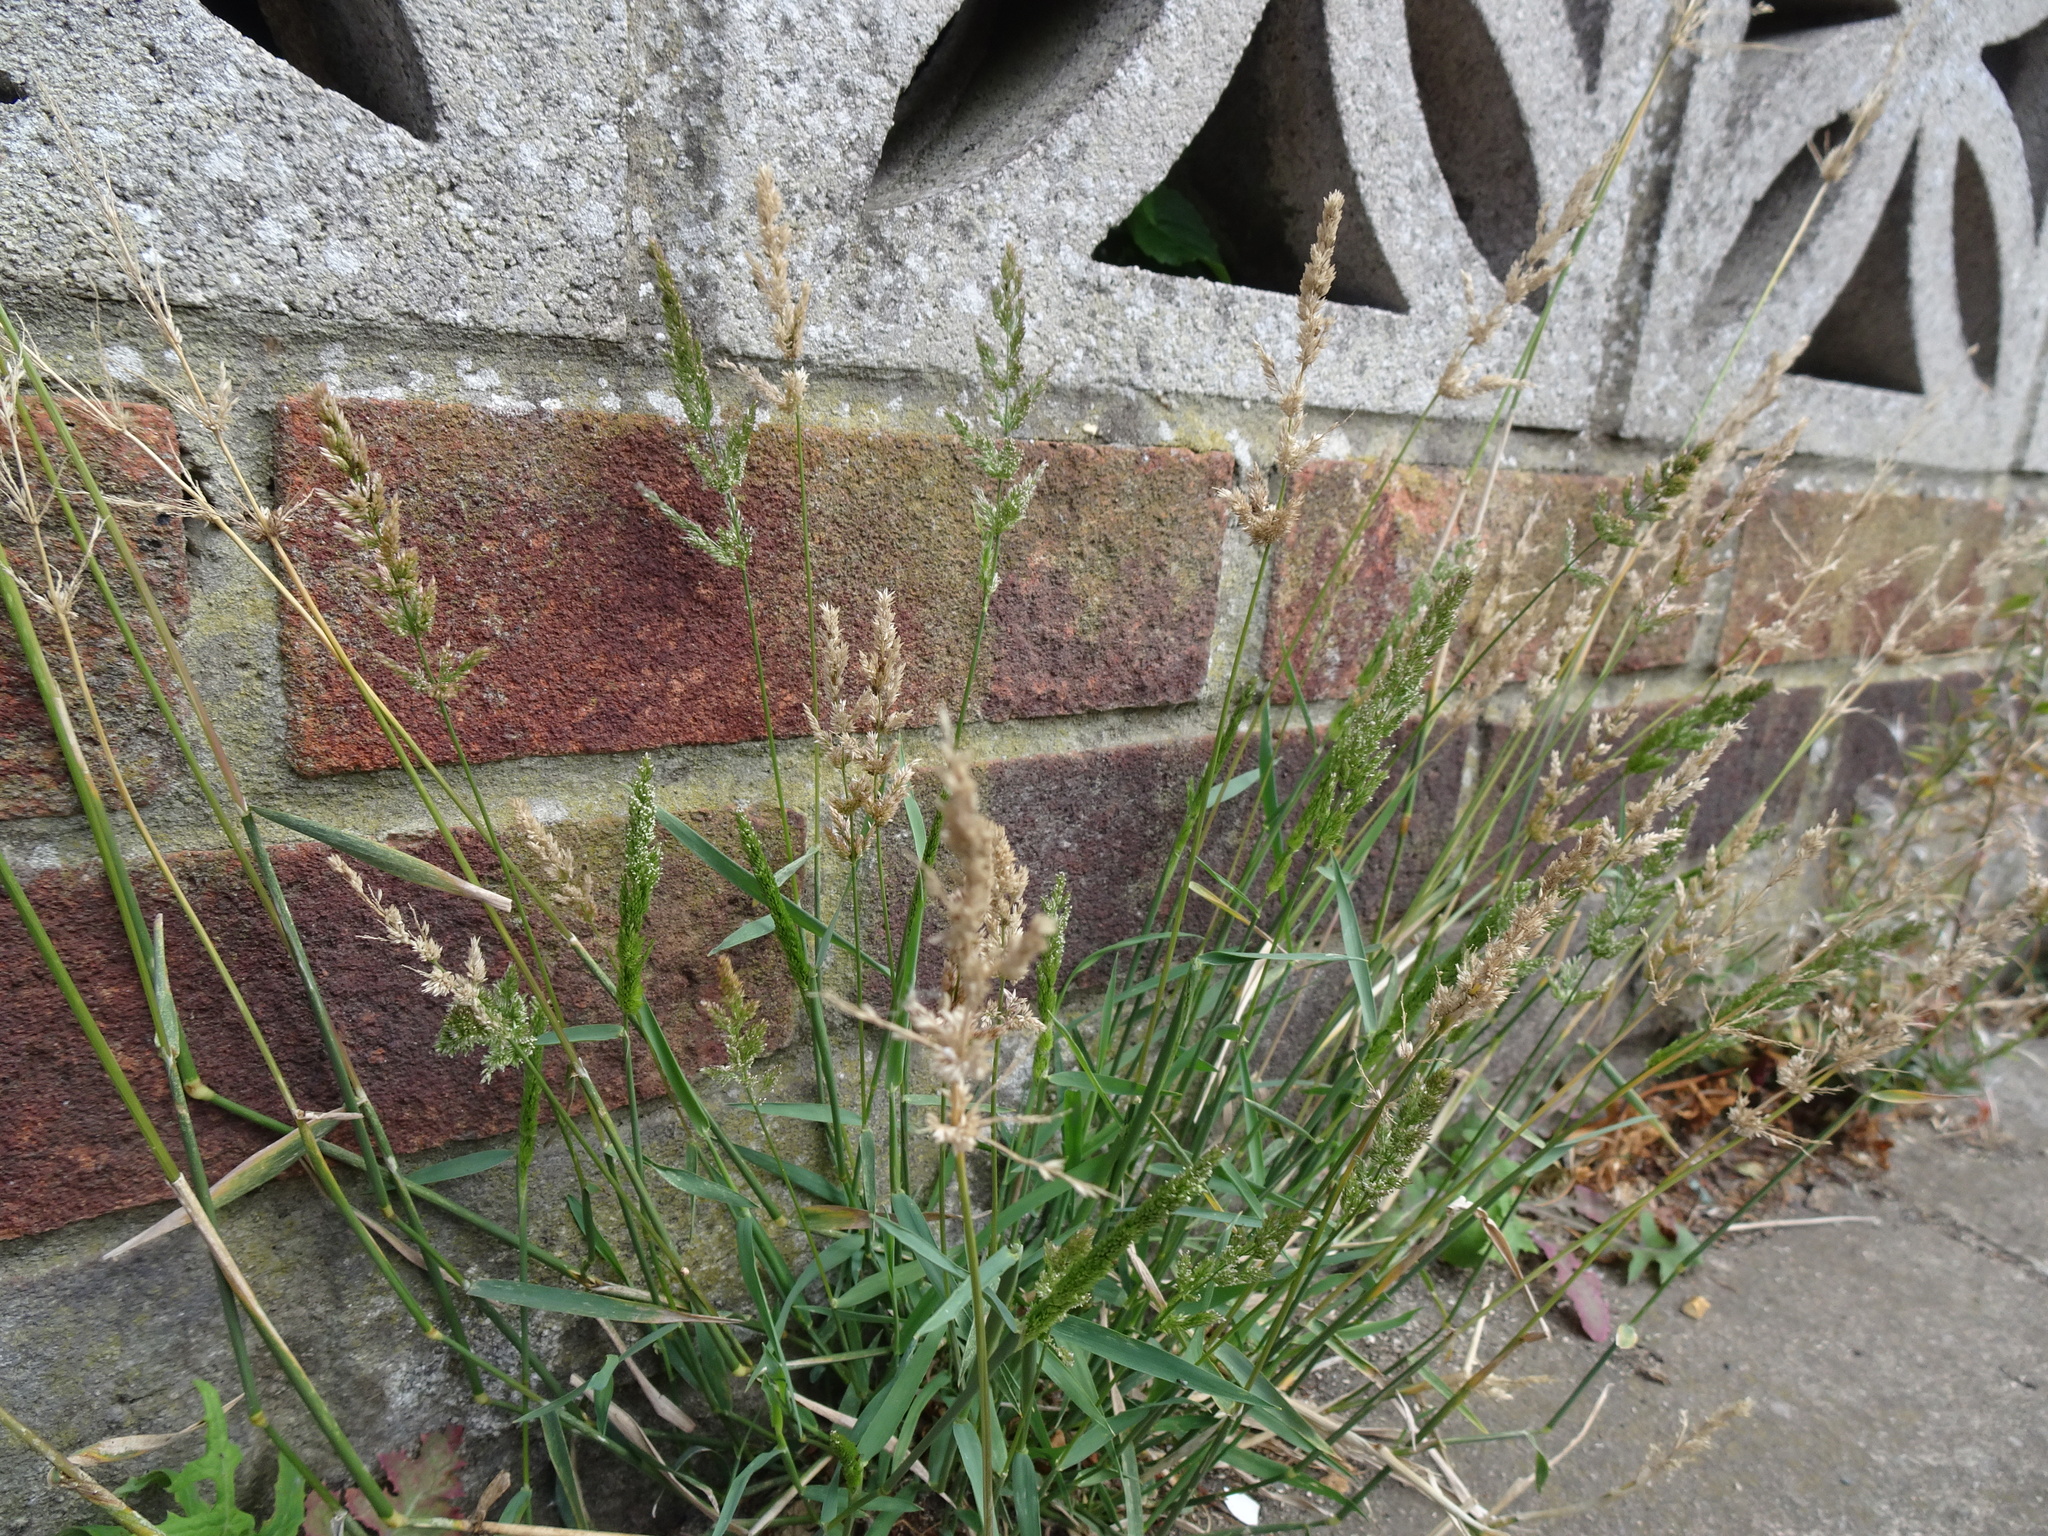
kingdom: Plantae
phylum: Tracheophyta
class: Liliopsida
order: Poales
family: Poaceae
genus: Polypogon
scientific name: Polypogon viridis
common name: Water bent
